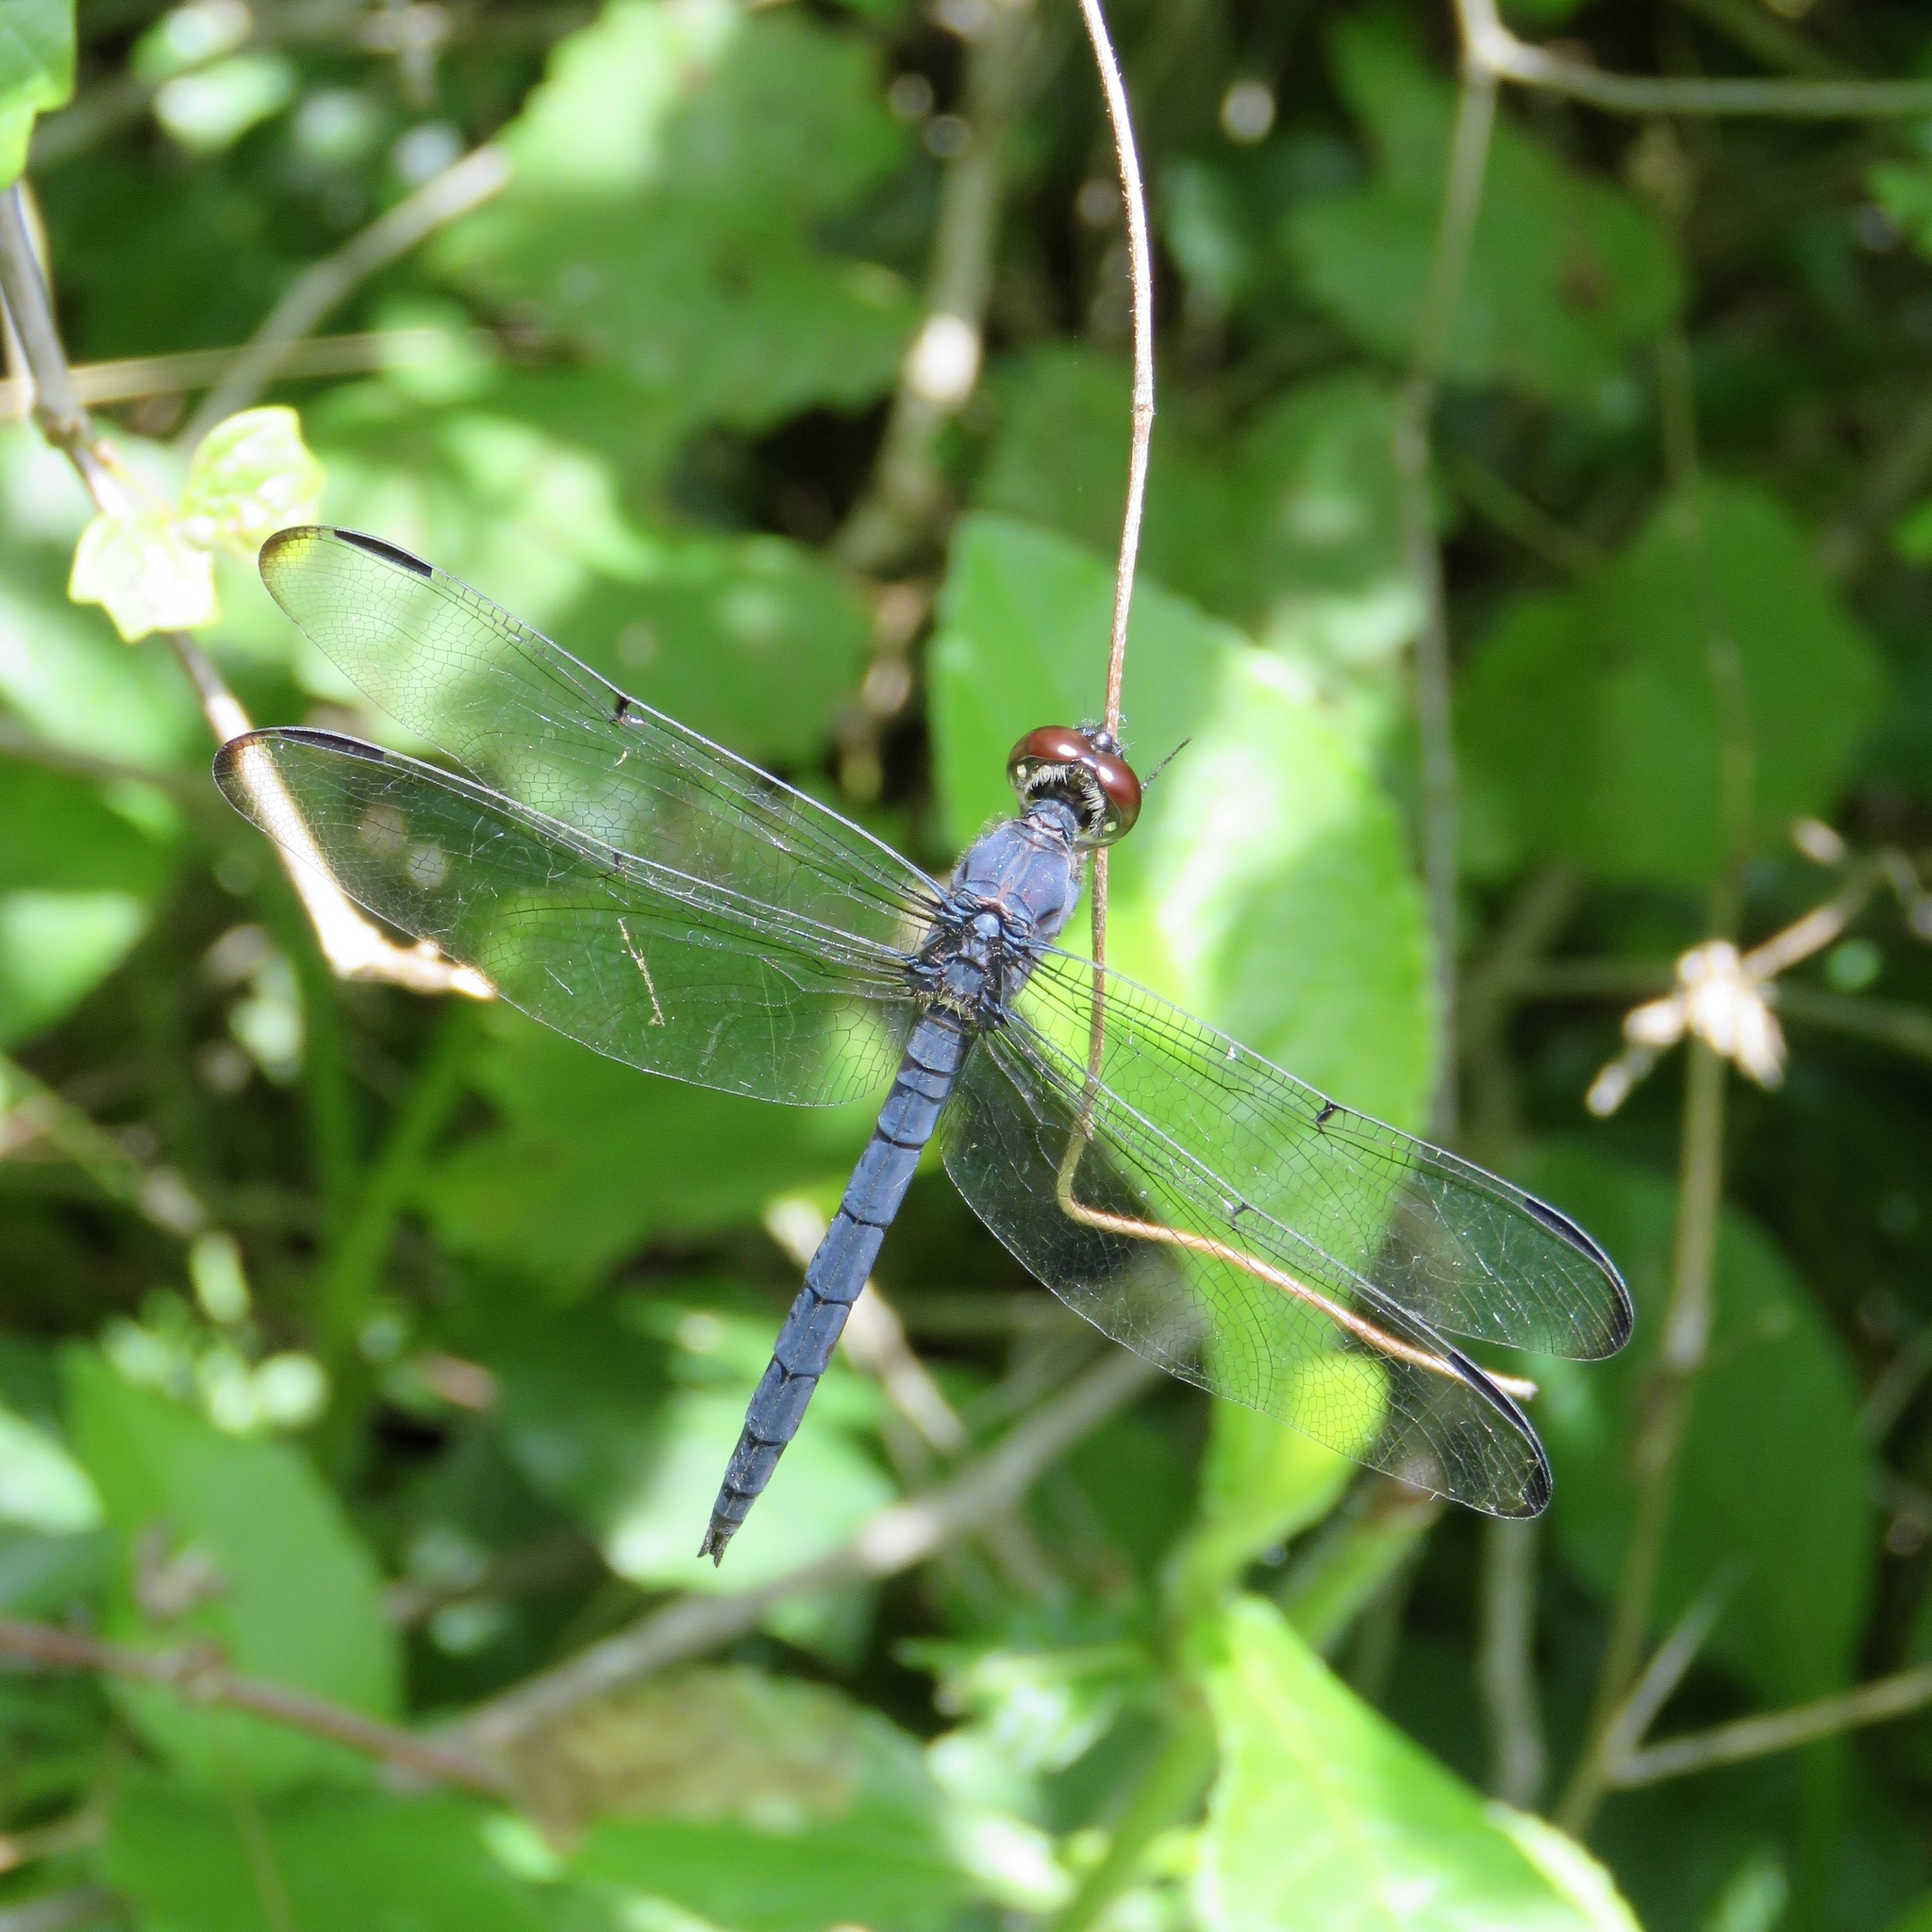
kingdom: Animalia
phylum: Arthropoda
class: Insecta
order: Odonata
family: Libellulidae
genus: Libellula
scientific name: Libellula incesta
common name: Slaty skimmer
